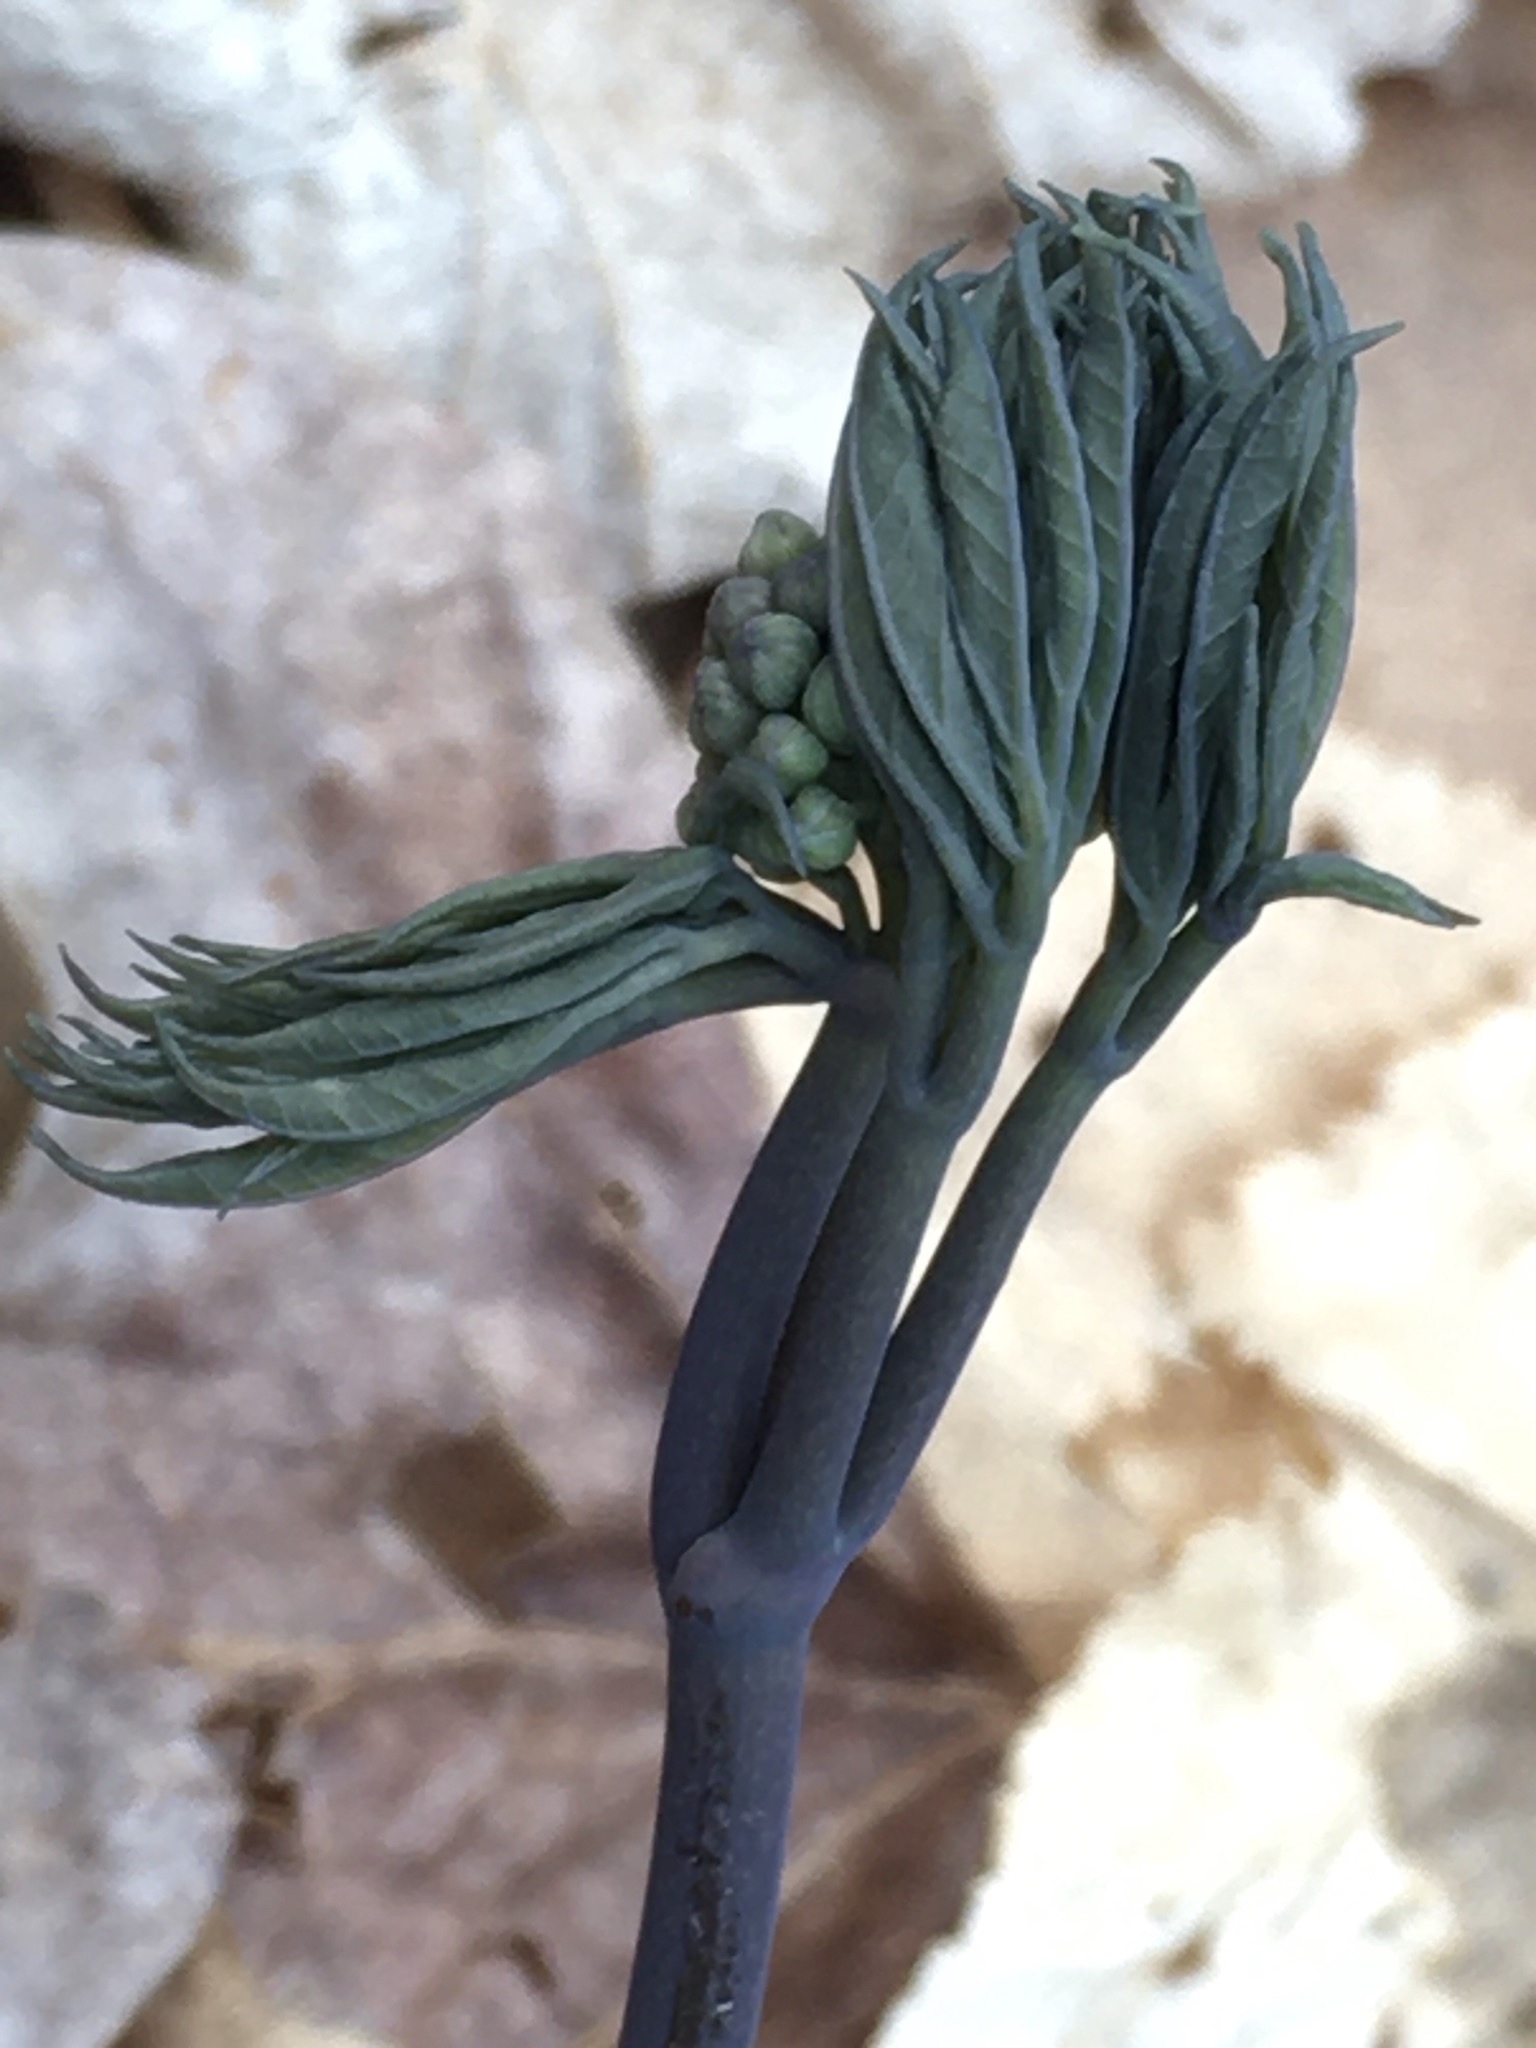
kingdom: Plantae
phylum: Tracheophyta
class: Magnoliopsida
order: Ranunculales
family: Berberidaceae
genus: Caulophyllum
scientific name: Caulophyllum giganteum
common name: Blue cohosh
